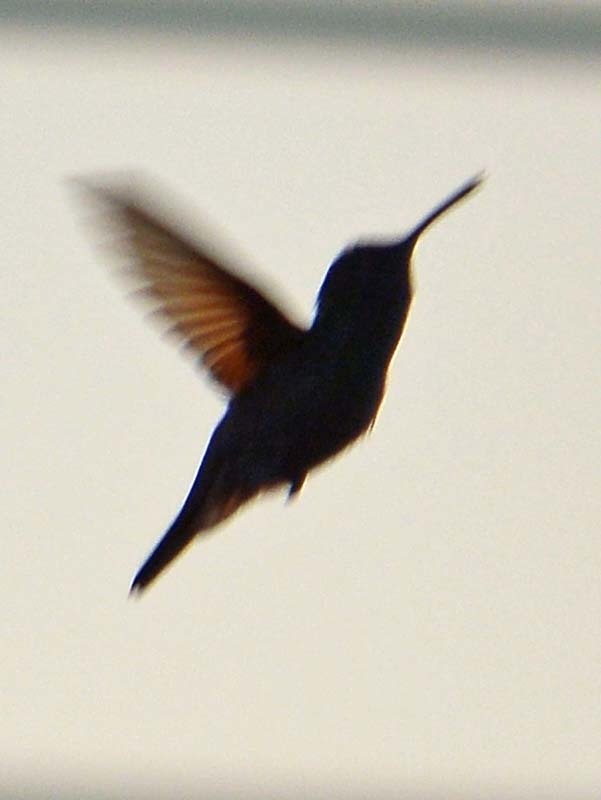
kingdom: Animalia
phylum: Chordata
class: Aves
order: Apodiformes
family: Trochilidae
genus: Saucerottia
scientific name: Saucerottia beryllina
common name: Berylline hummingbird
